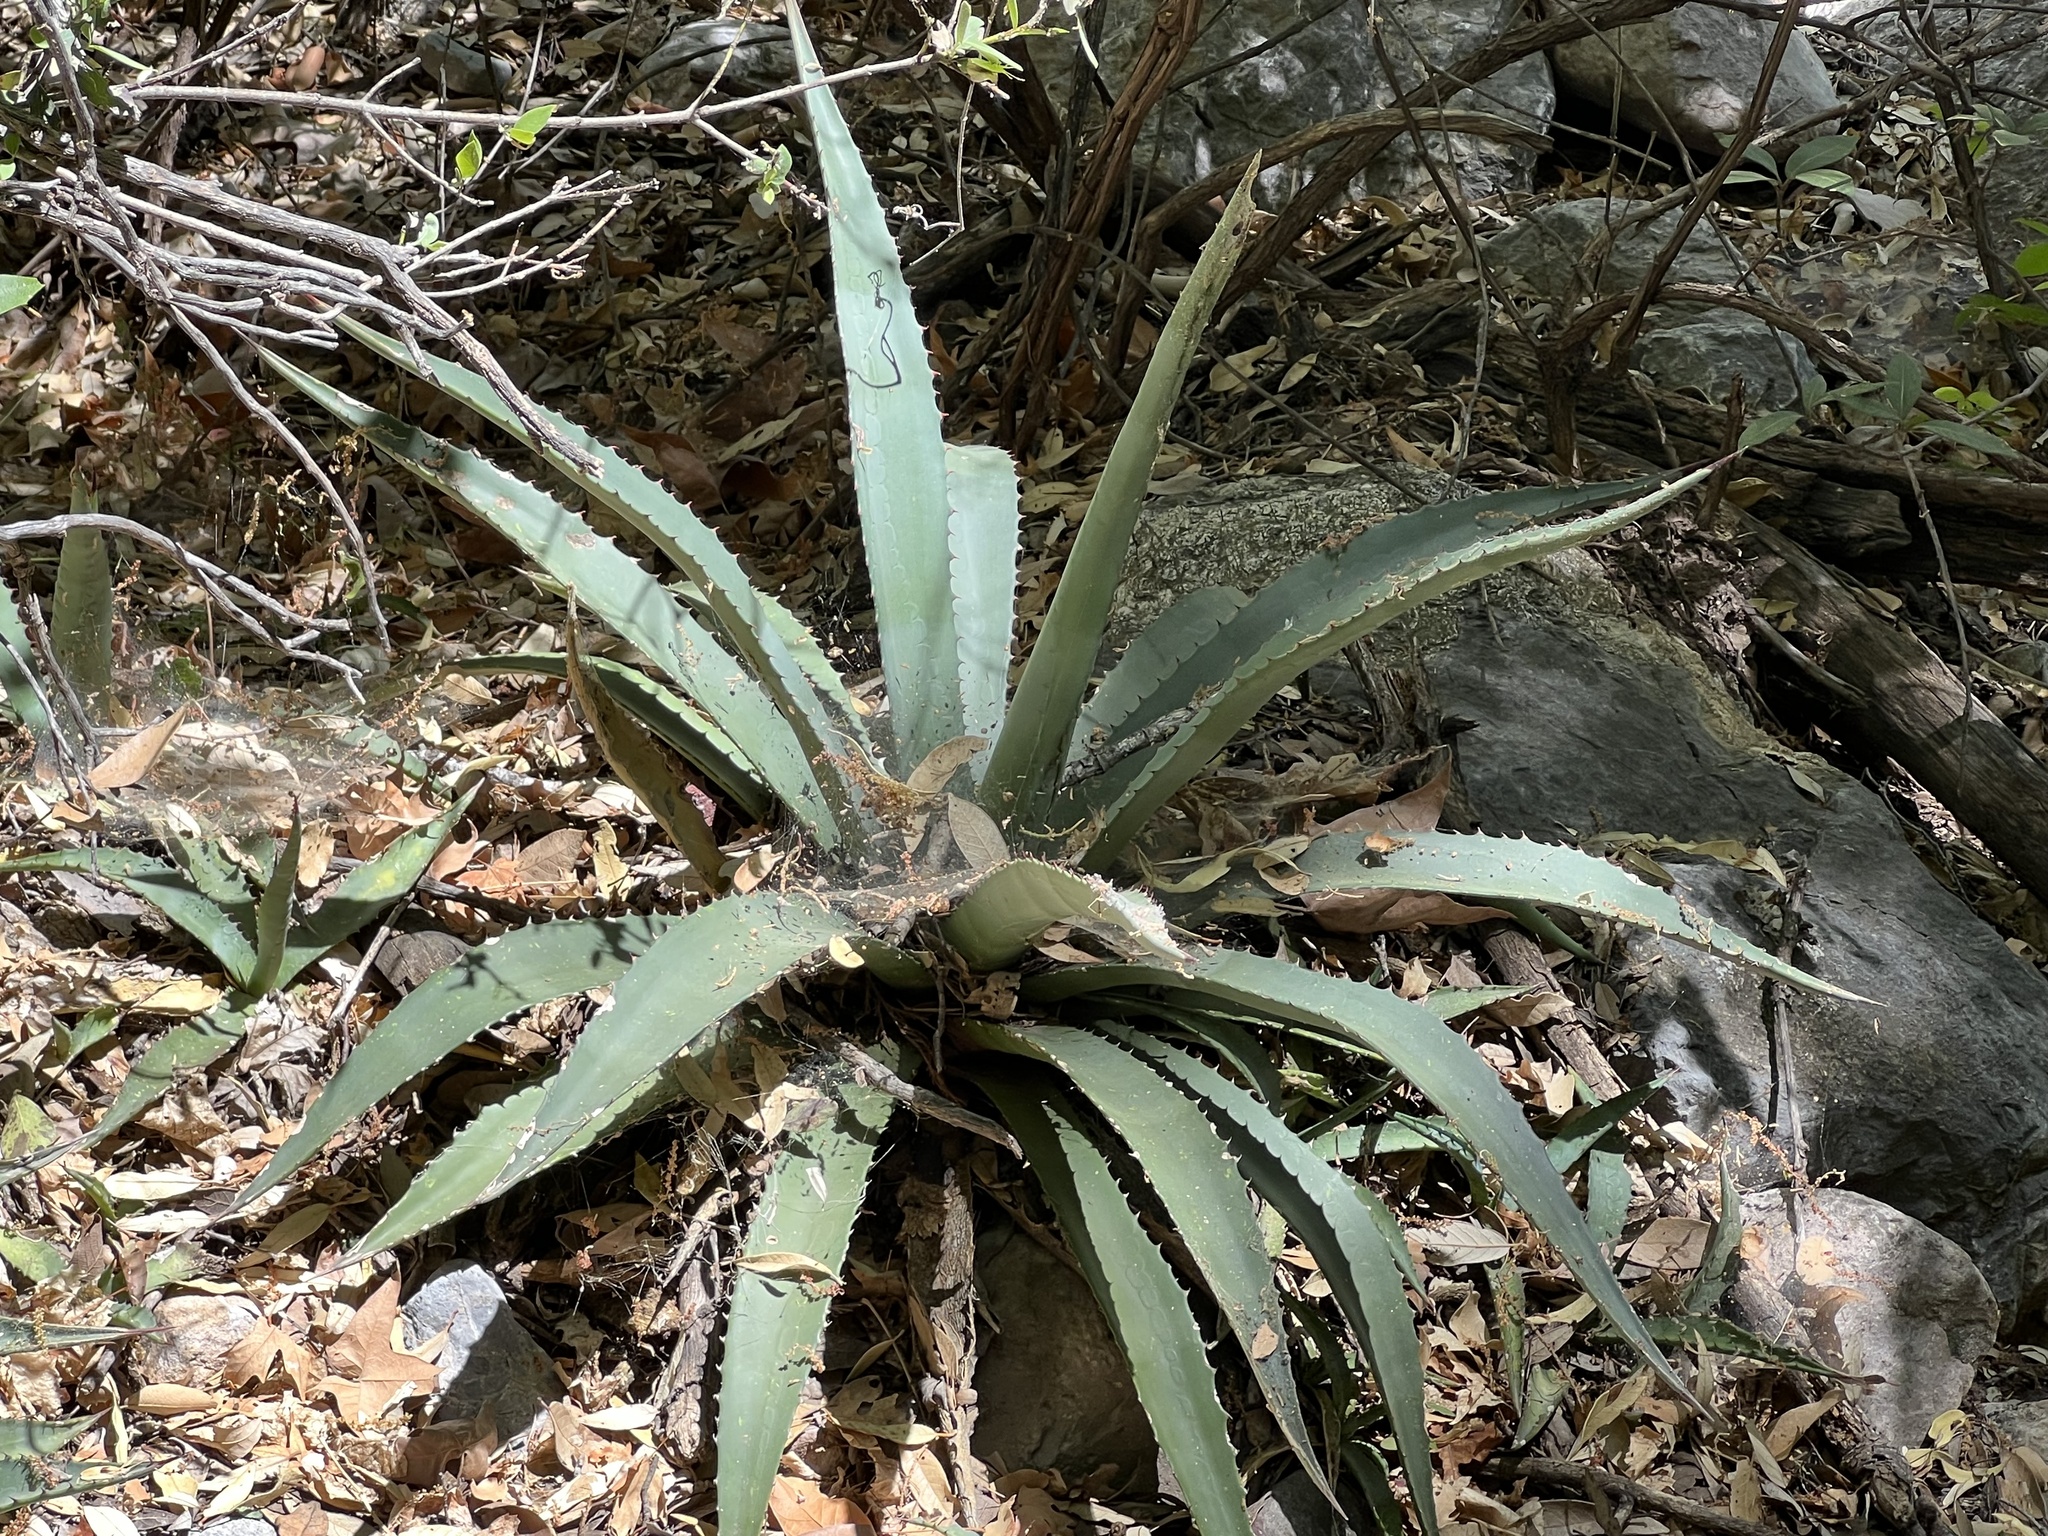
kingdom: Plantae
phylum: Tracheophyta
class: Liliopsida
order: Asparagales
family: Asparagaceae
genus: Agave
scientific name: Agave palmeri
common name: Palmer agave
